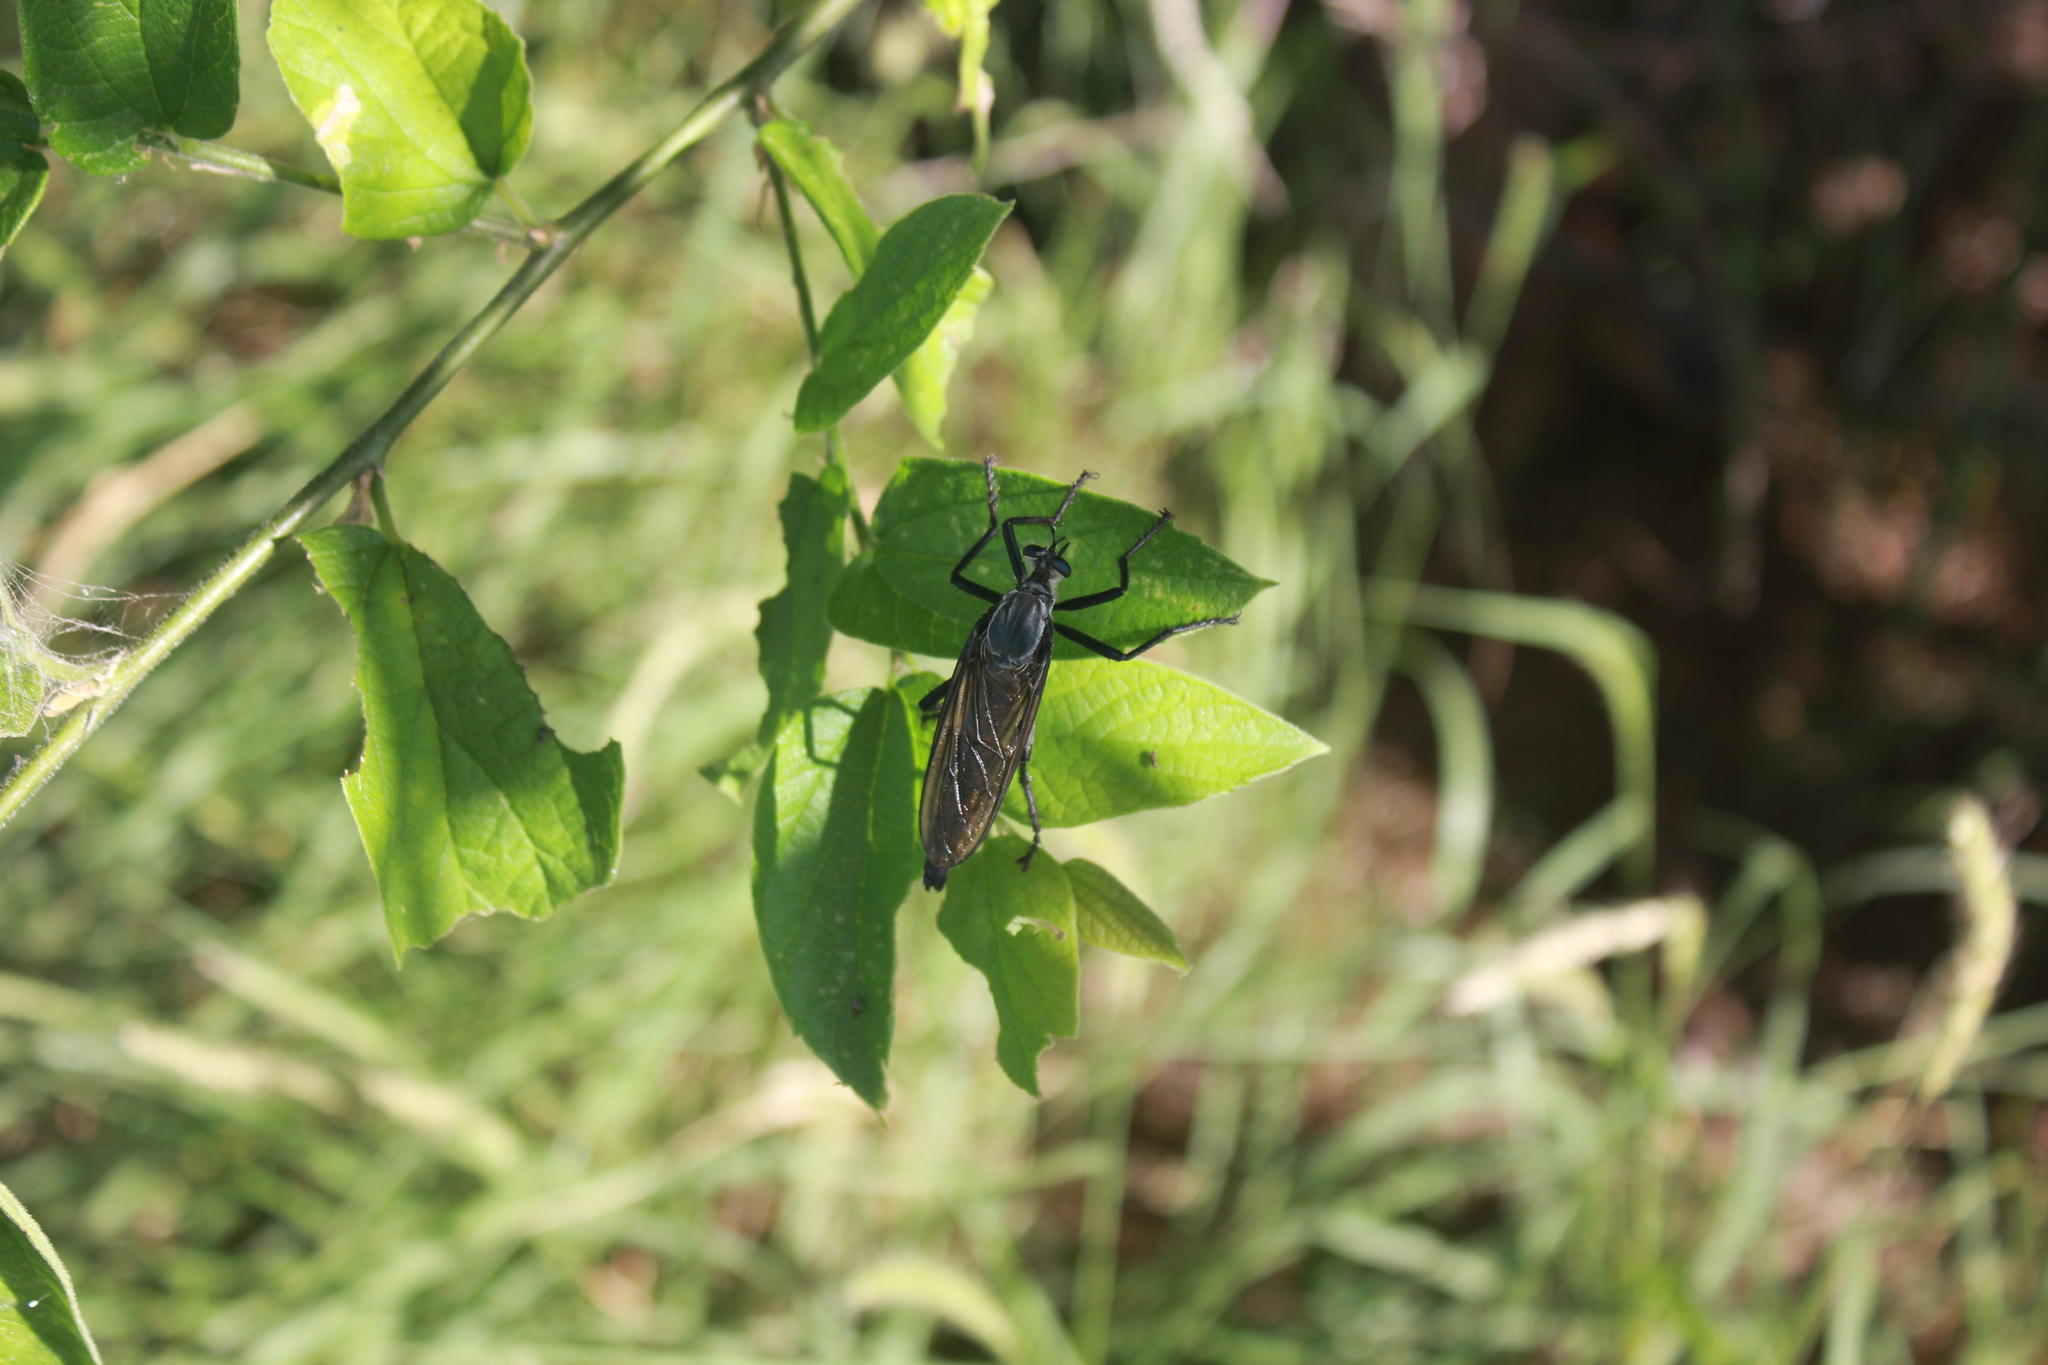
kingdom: Animalia
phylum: Arthropoda
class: Insecta
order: Diptera
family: Asilidae
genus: Microstylum
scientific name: Microstylum morosum
